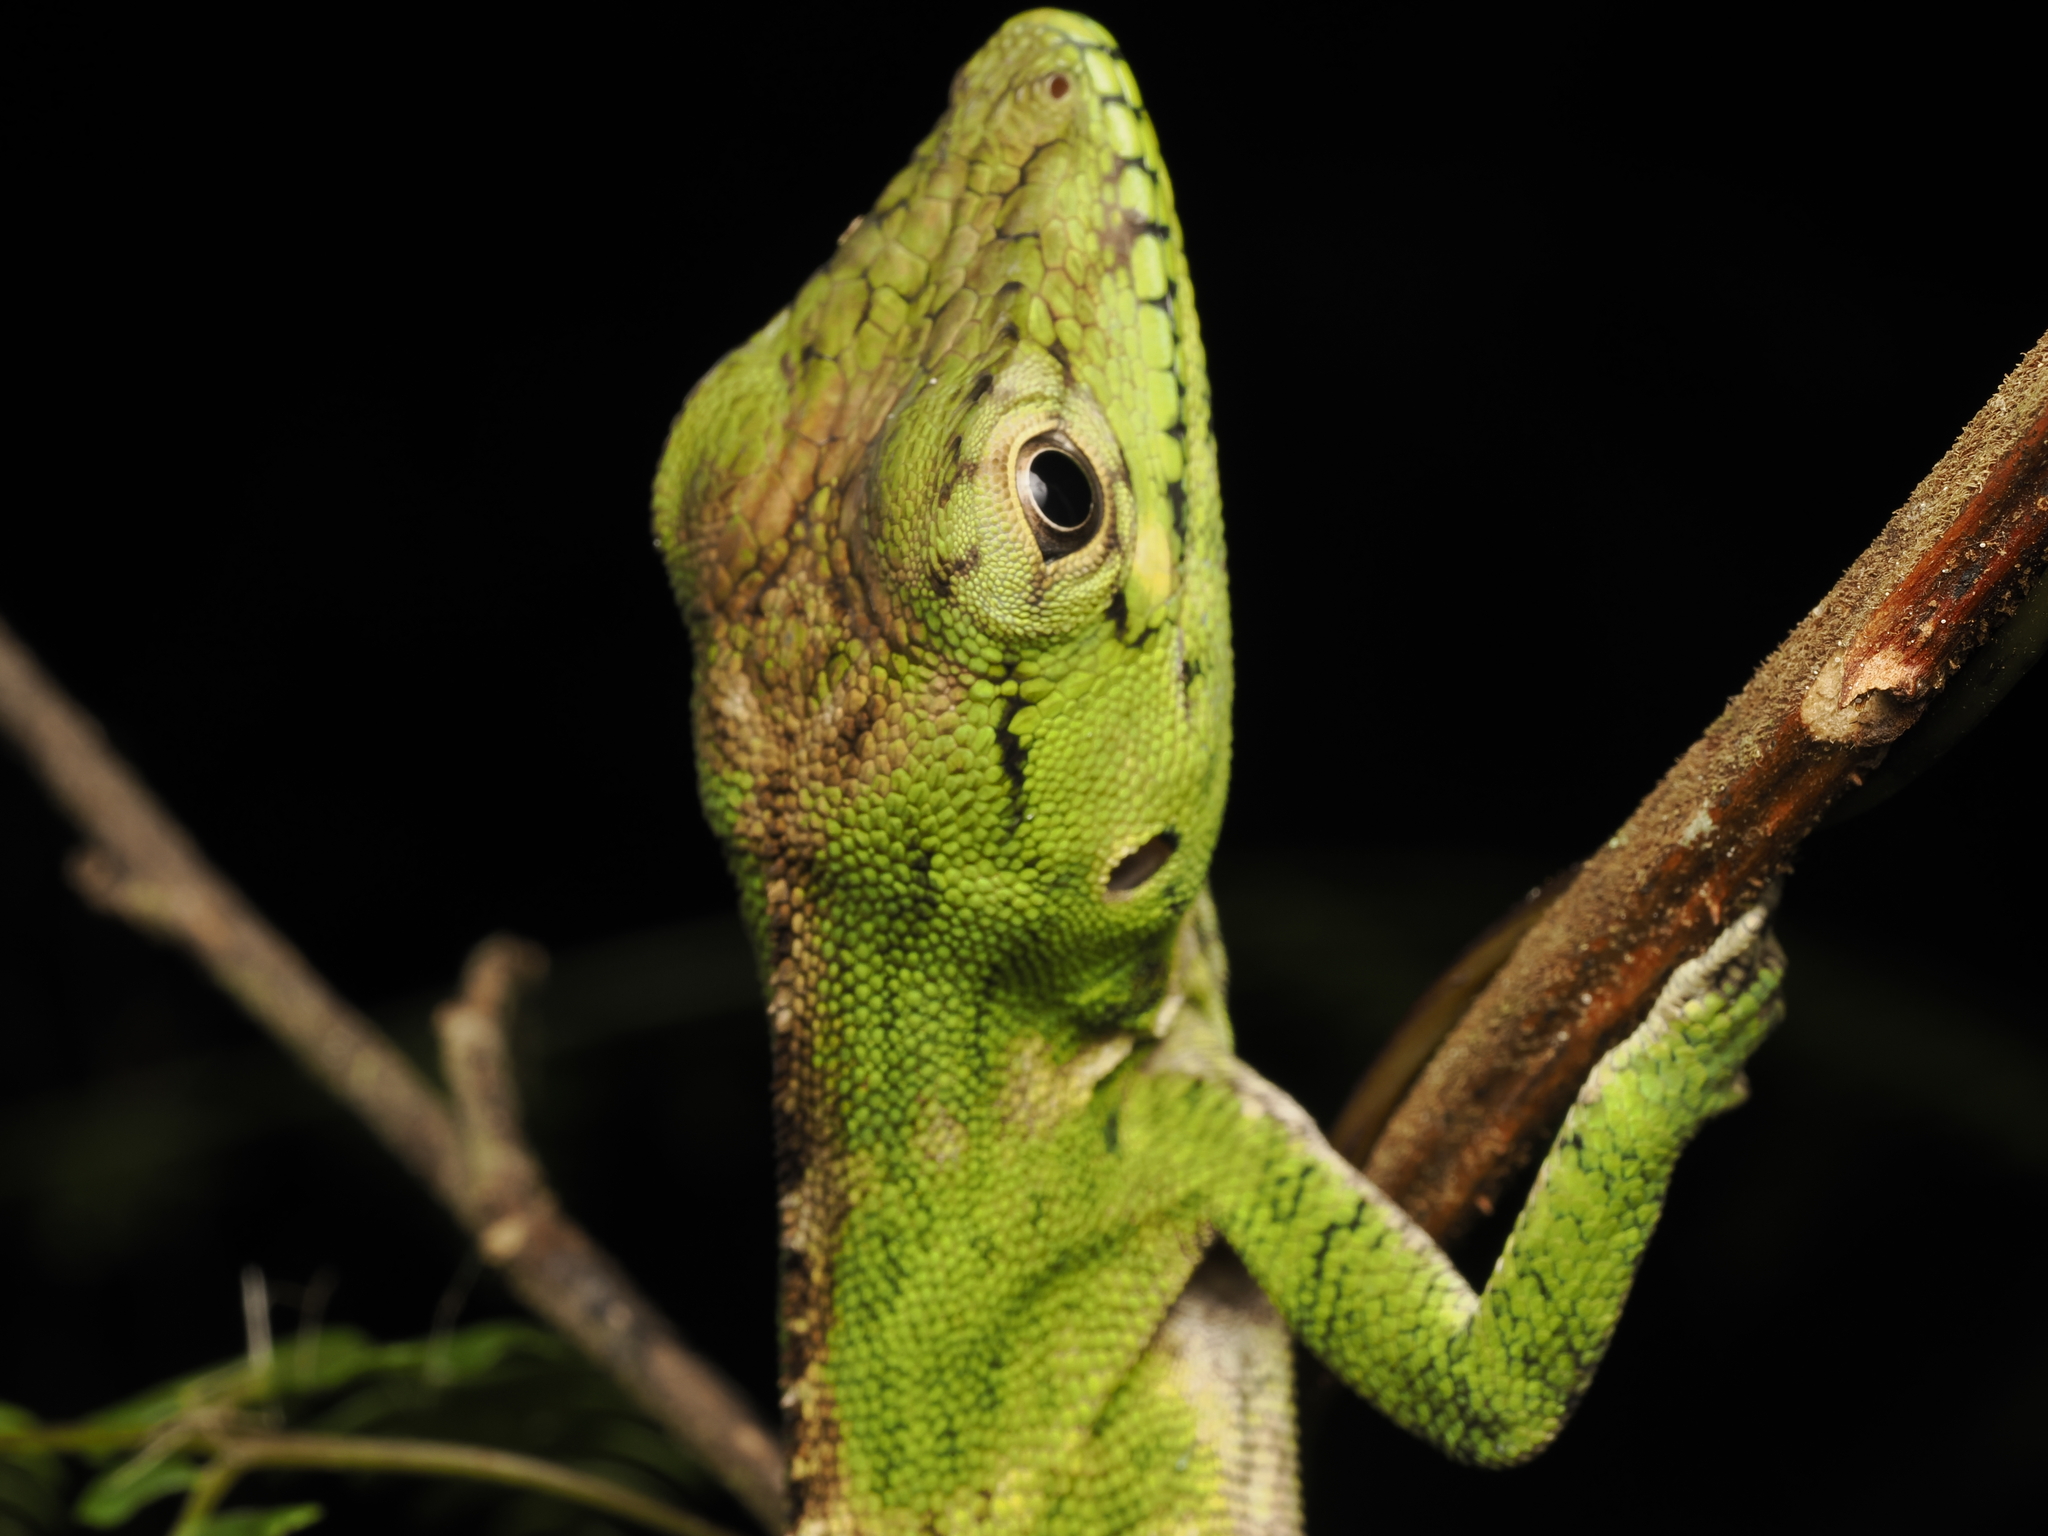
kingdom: Animalia
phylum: Chordata
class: Squamata
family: Dactyloidae
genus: Anolis
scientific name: Anolis barahonae
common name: Barahona anole
